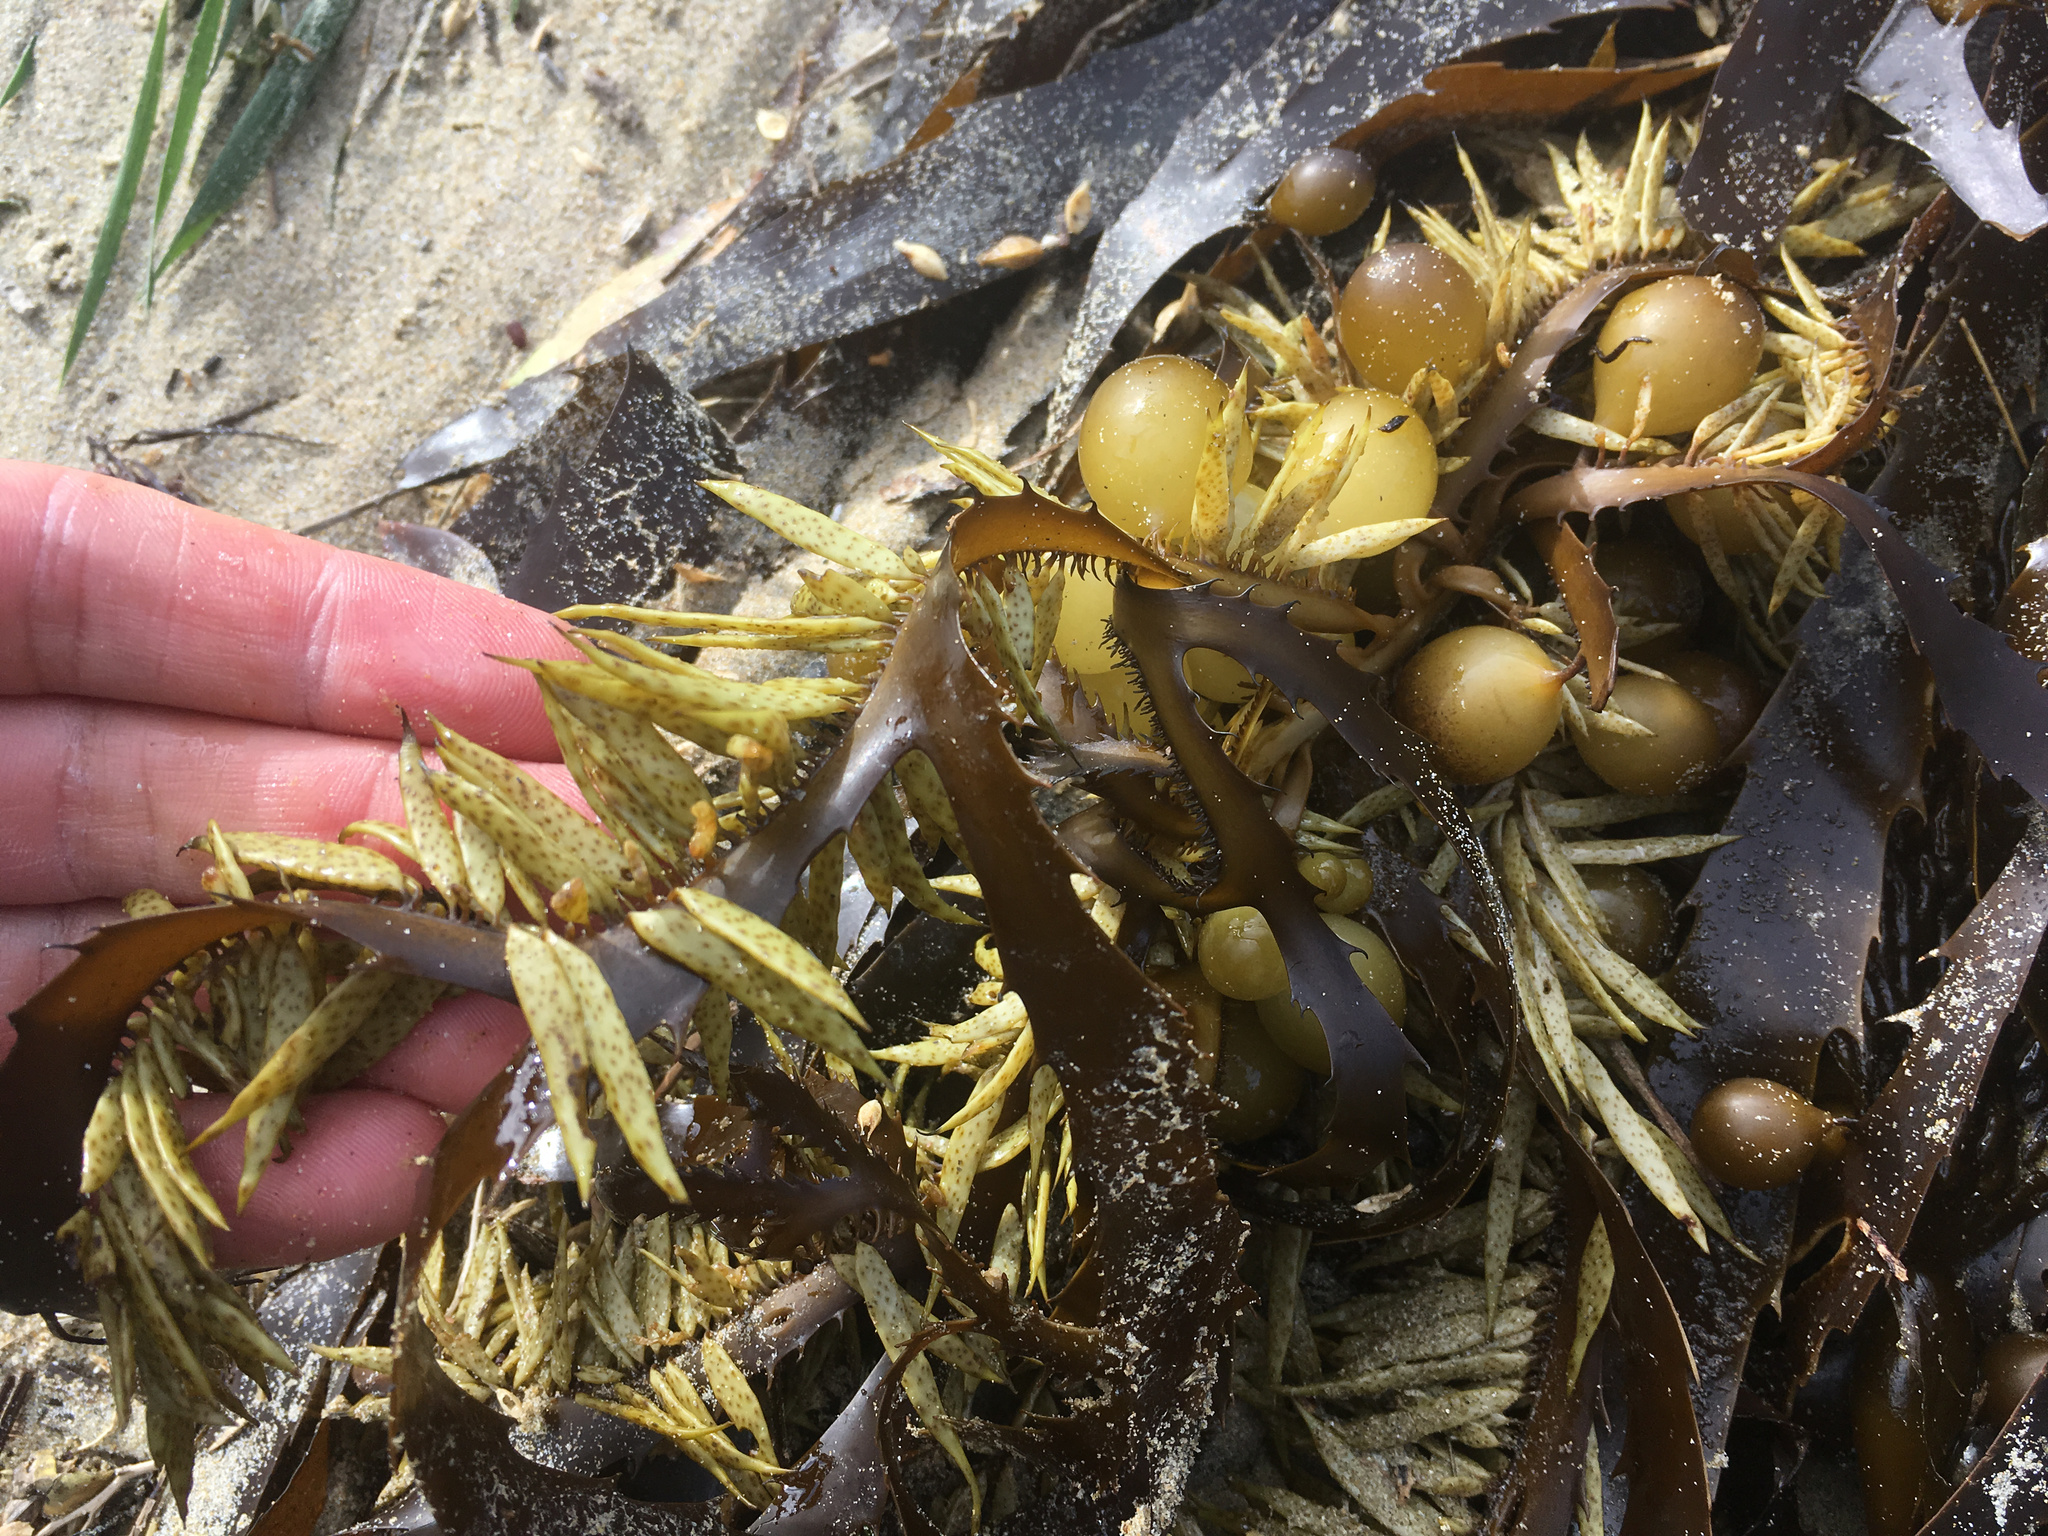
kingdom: Chromista
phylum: Ochrophyta
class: Phaeophyceae
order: Fucales
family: Seirococcaceae
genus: Marginariella
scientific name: Marginariella urvilliana
